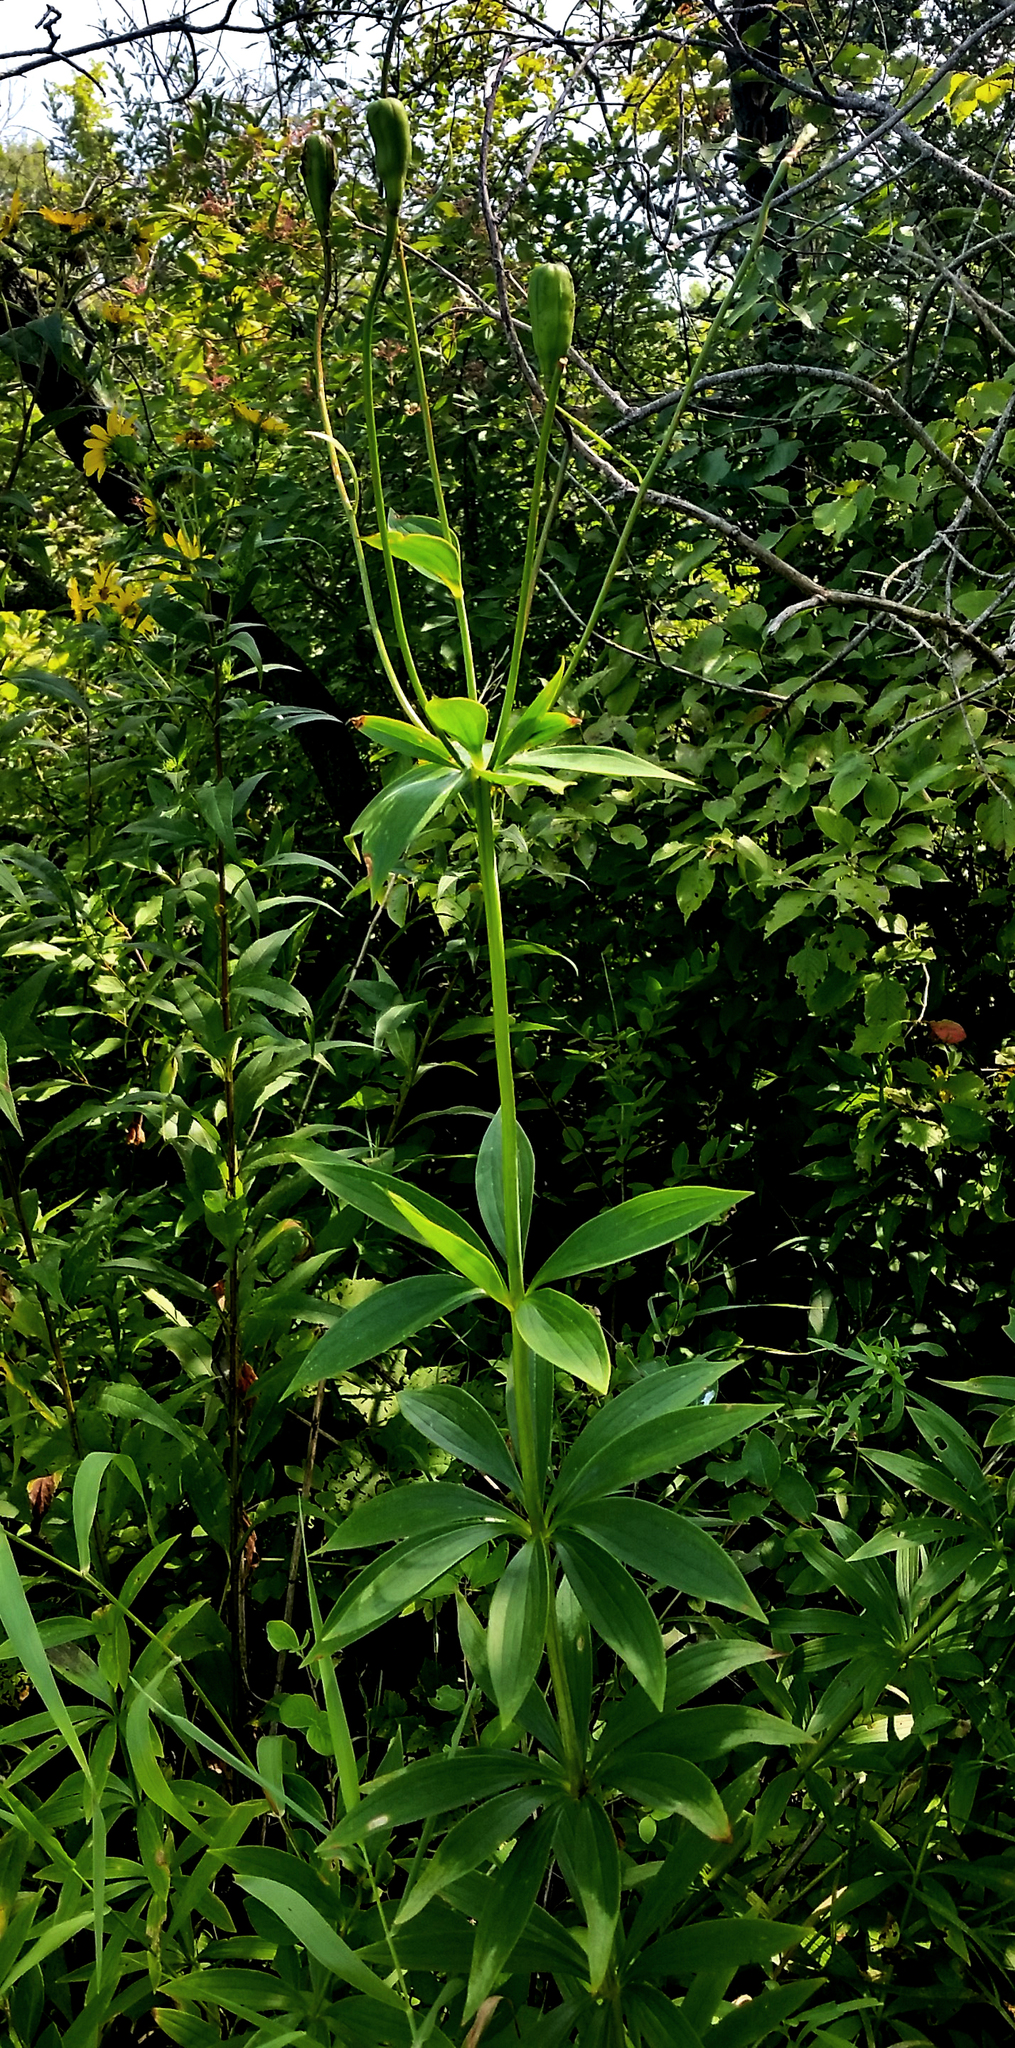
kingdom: Plantae
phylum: Tracheophyta
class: Liliopsida
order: Liliales
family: Liliaceae
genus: Lilium
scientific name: Lilium michiganense
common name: Michigan lily
